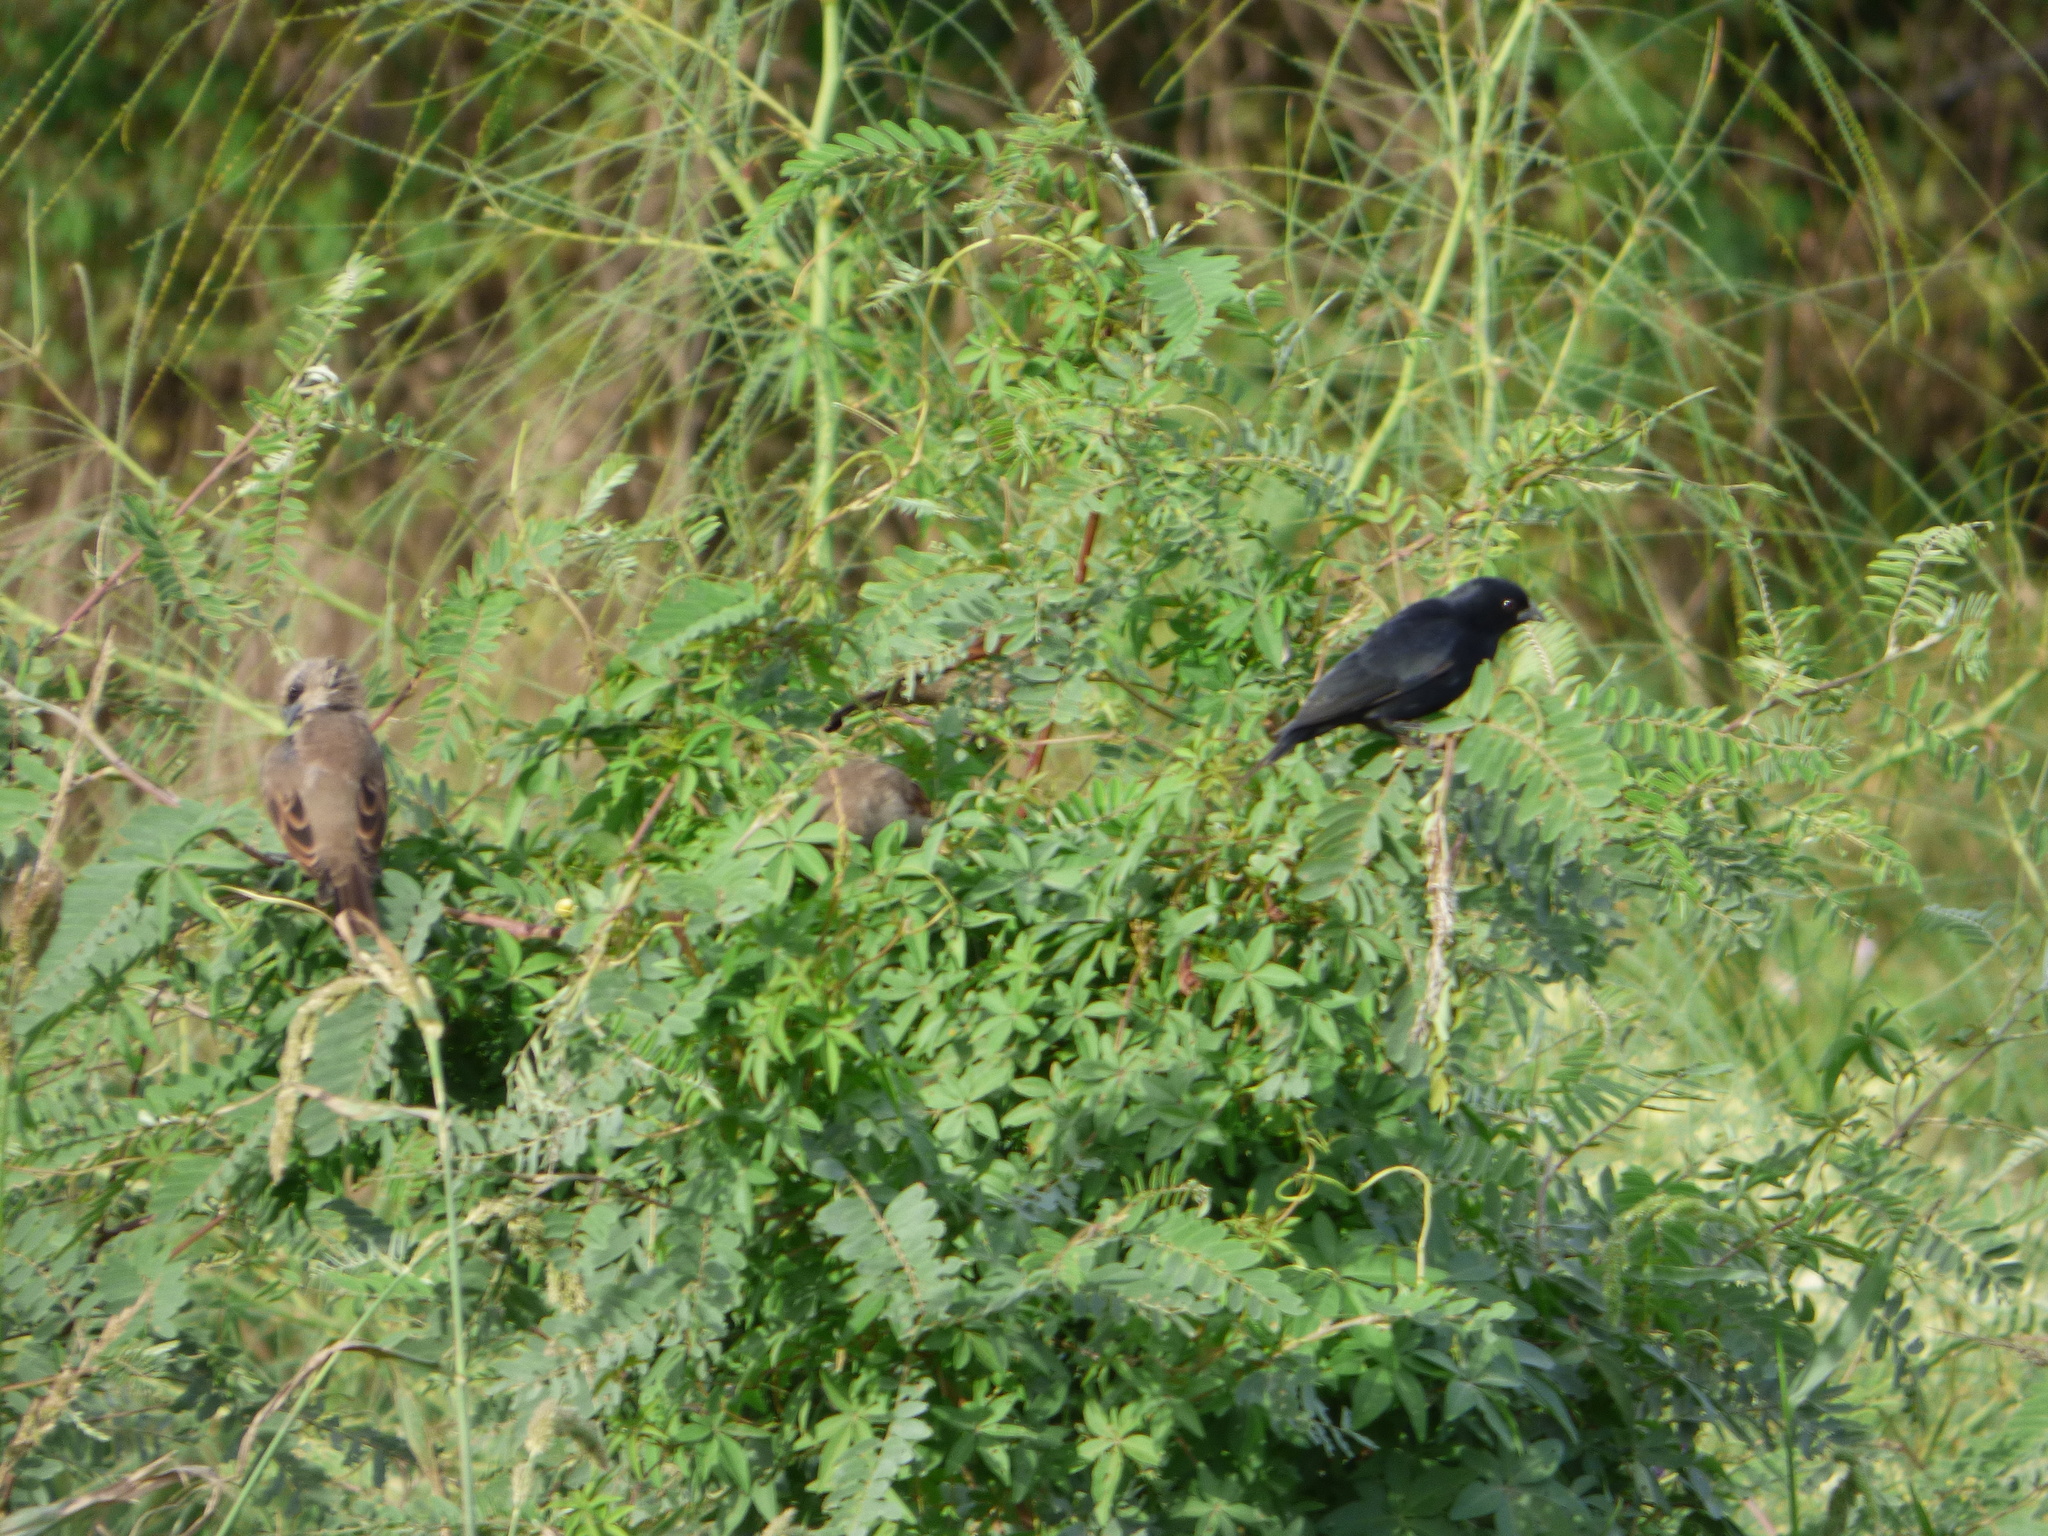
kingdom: Animalia
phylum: Chordata
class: Aves
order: Passeriformes
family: Icteridae
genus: Molothrus
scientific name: Molothrus rufoaxillaris
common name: Screaming cowbird
